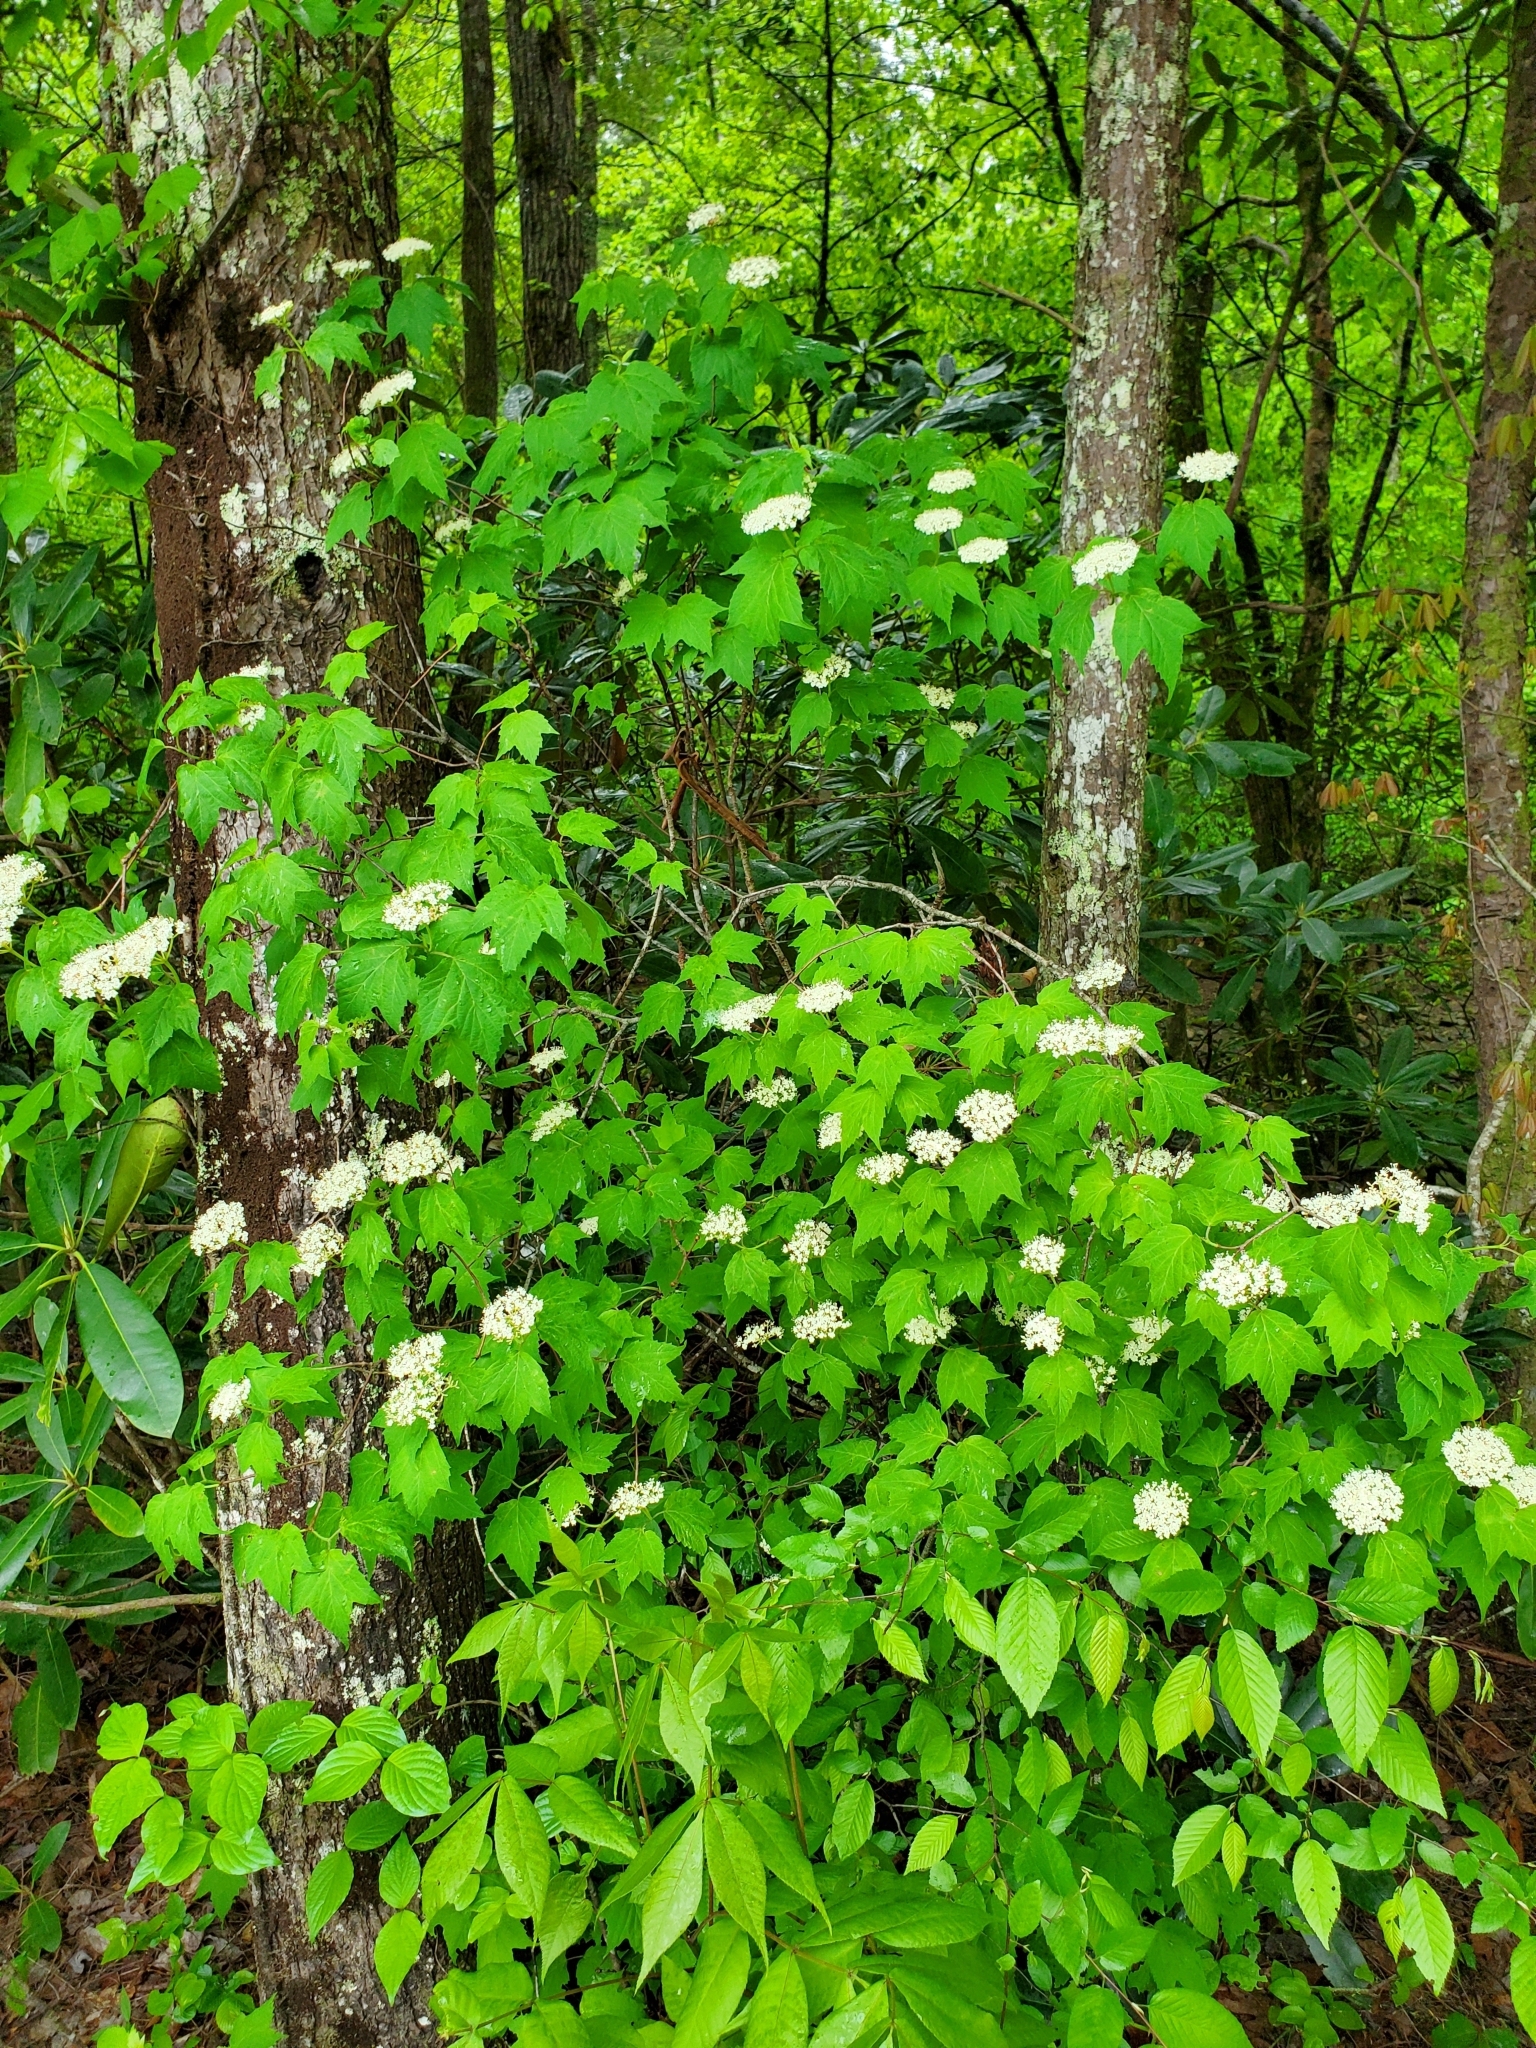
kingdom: Plantae
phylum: Tracheophyta
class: Magnoliopsida
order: Dipsacales
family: Viburnaceae
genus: Viburnum
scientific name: Viburnum acerifolium
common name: Dockmackie
